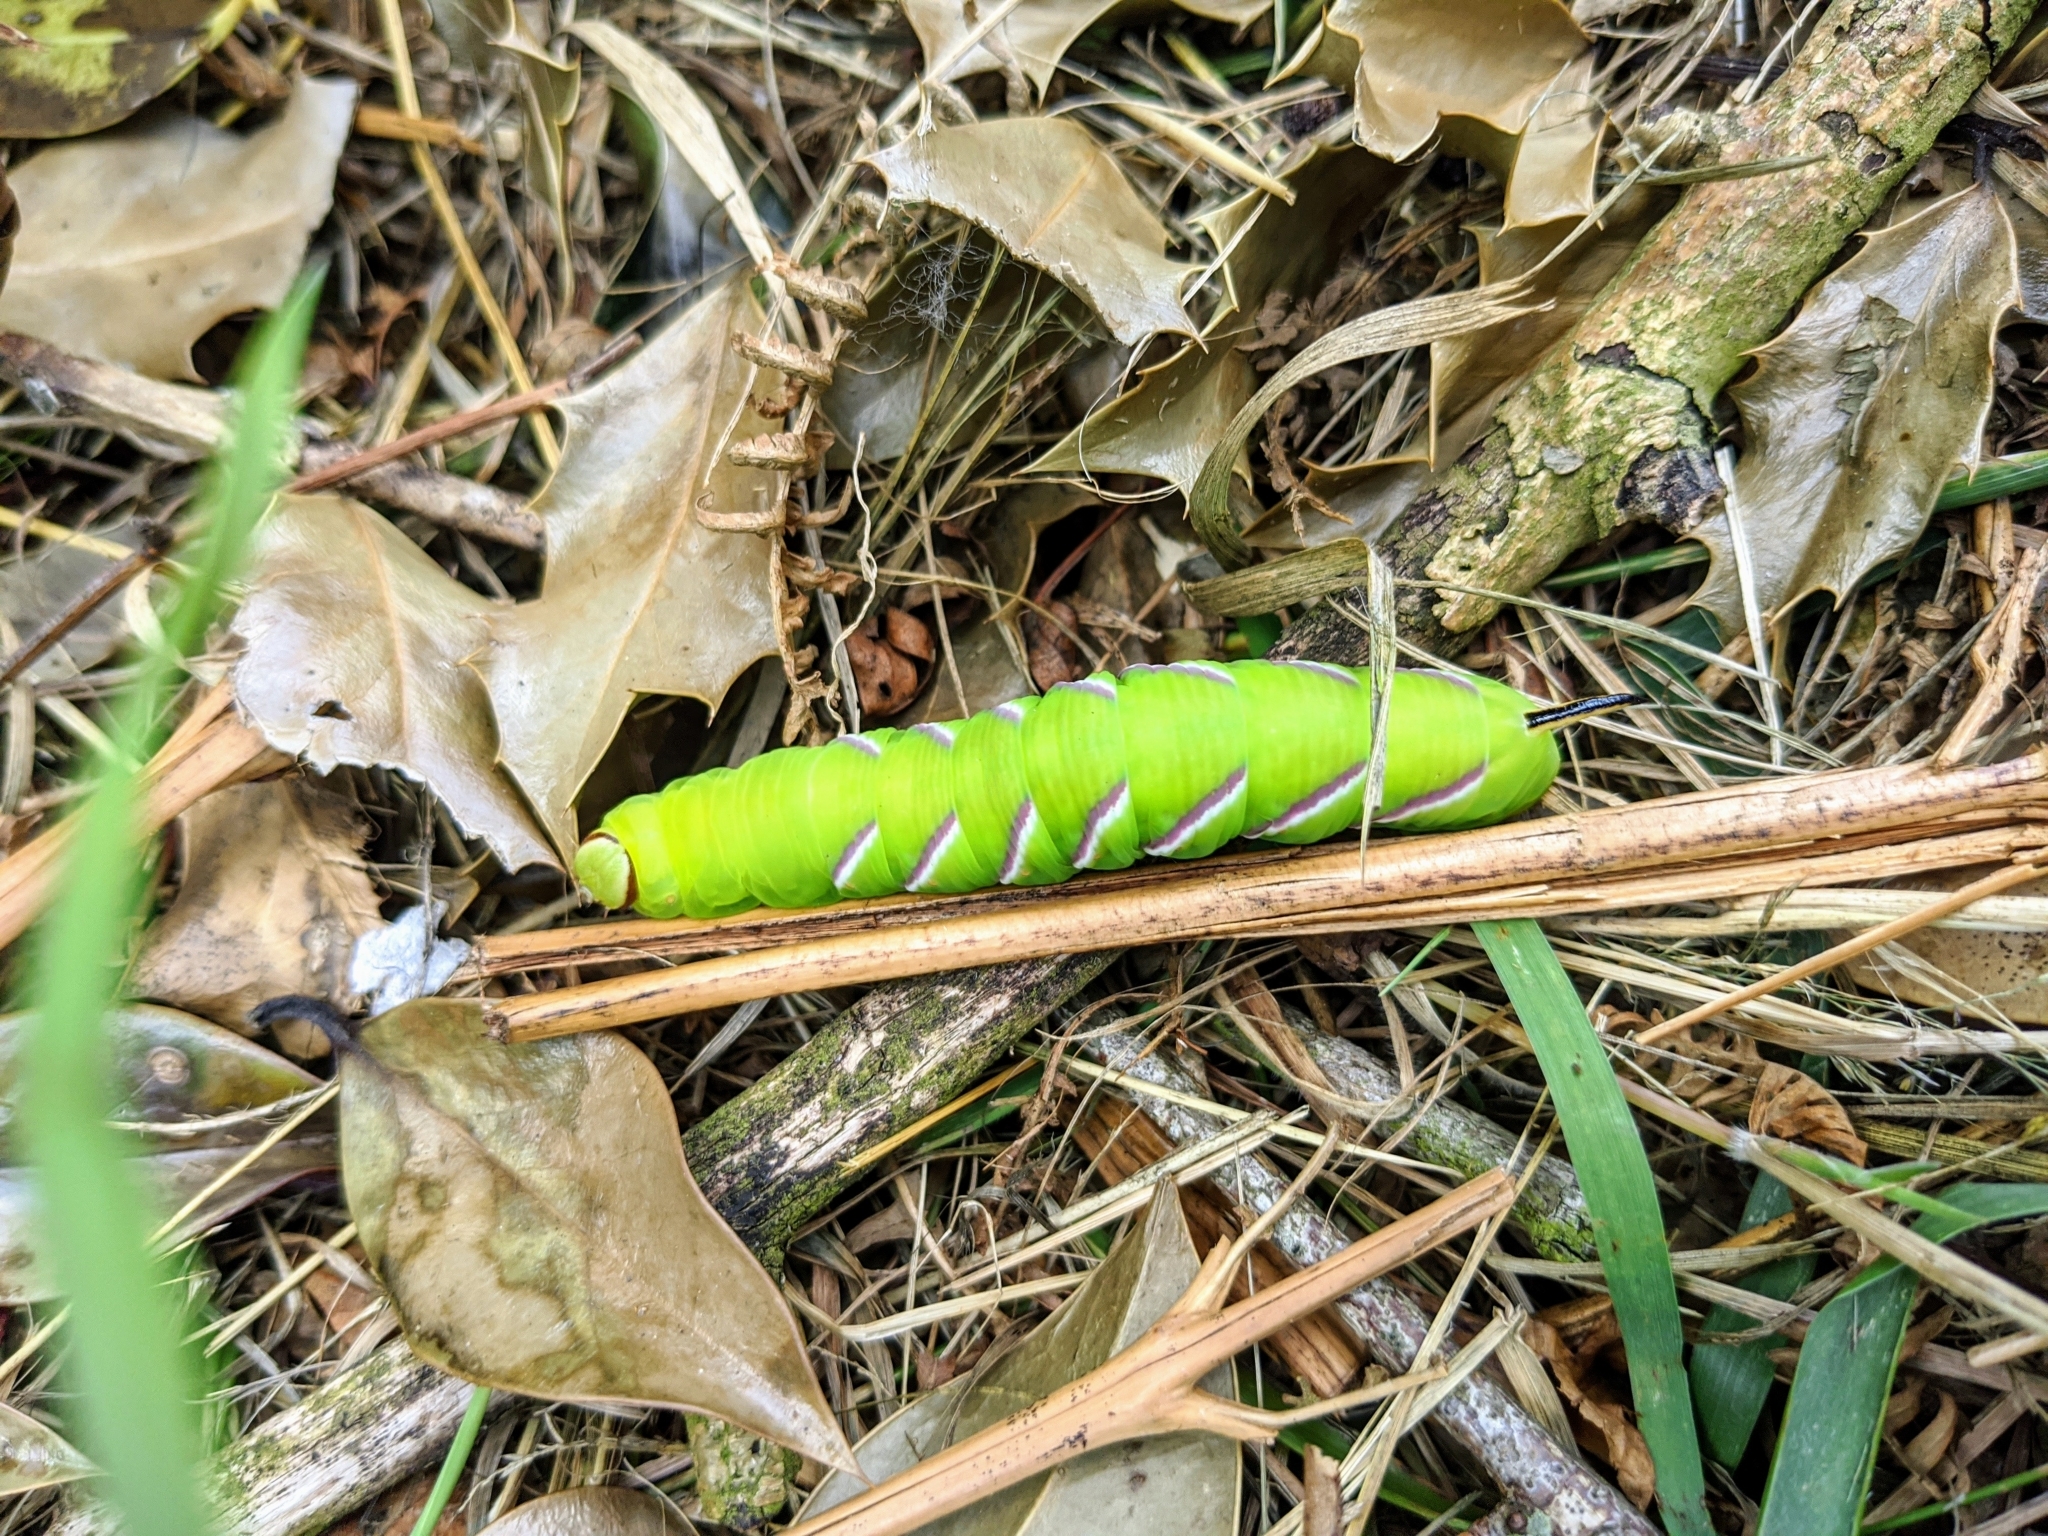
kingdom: Animalia
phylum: Arthropoda
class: Insecta
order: Lepidoptera
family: Sphingidae
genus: Sphinx
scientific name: Sphinx ligustri
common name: Privet hawk-moth
